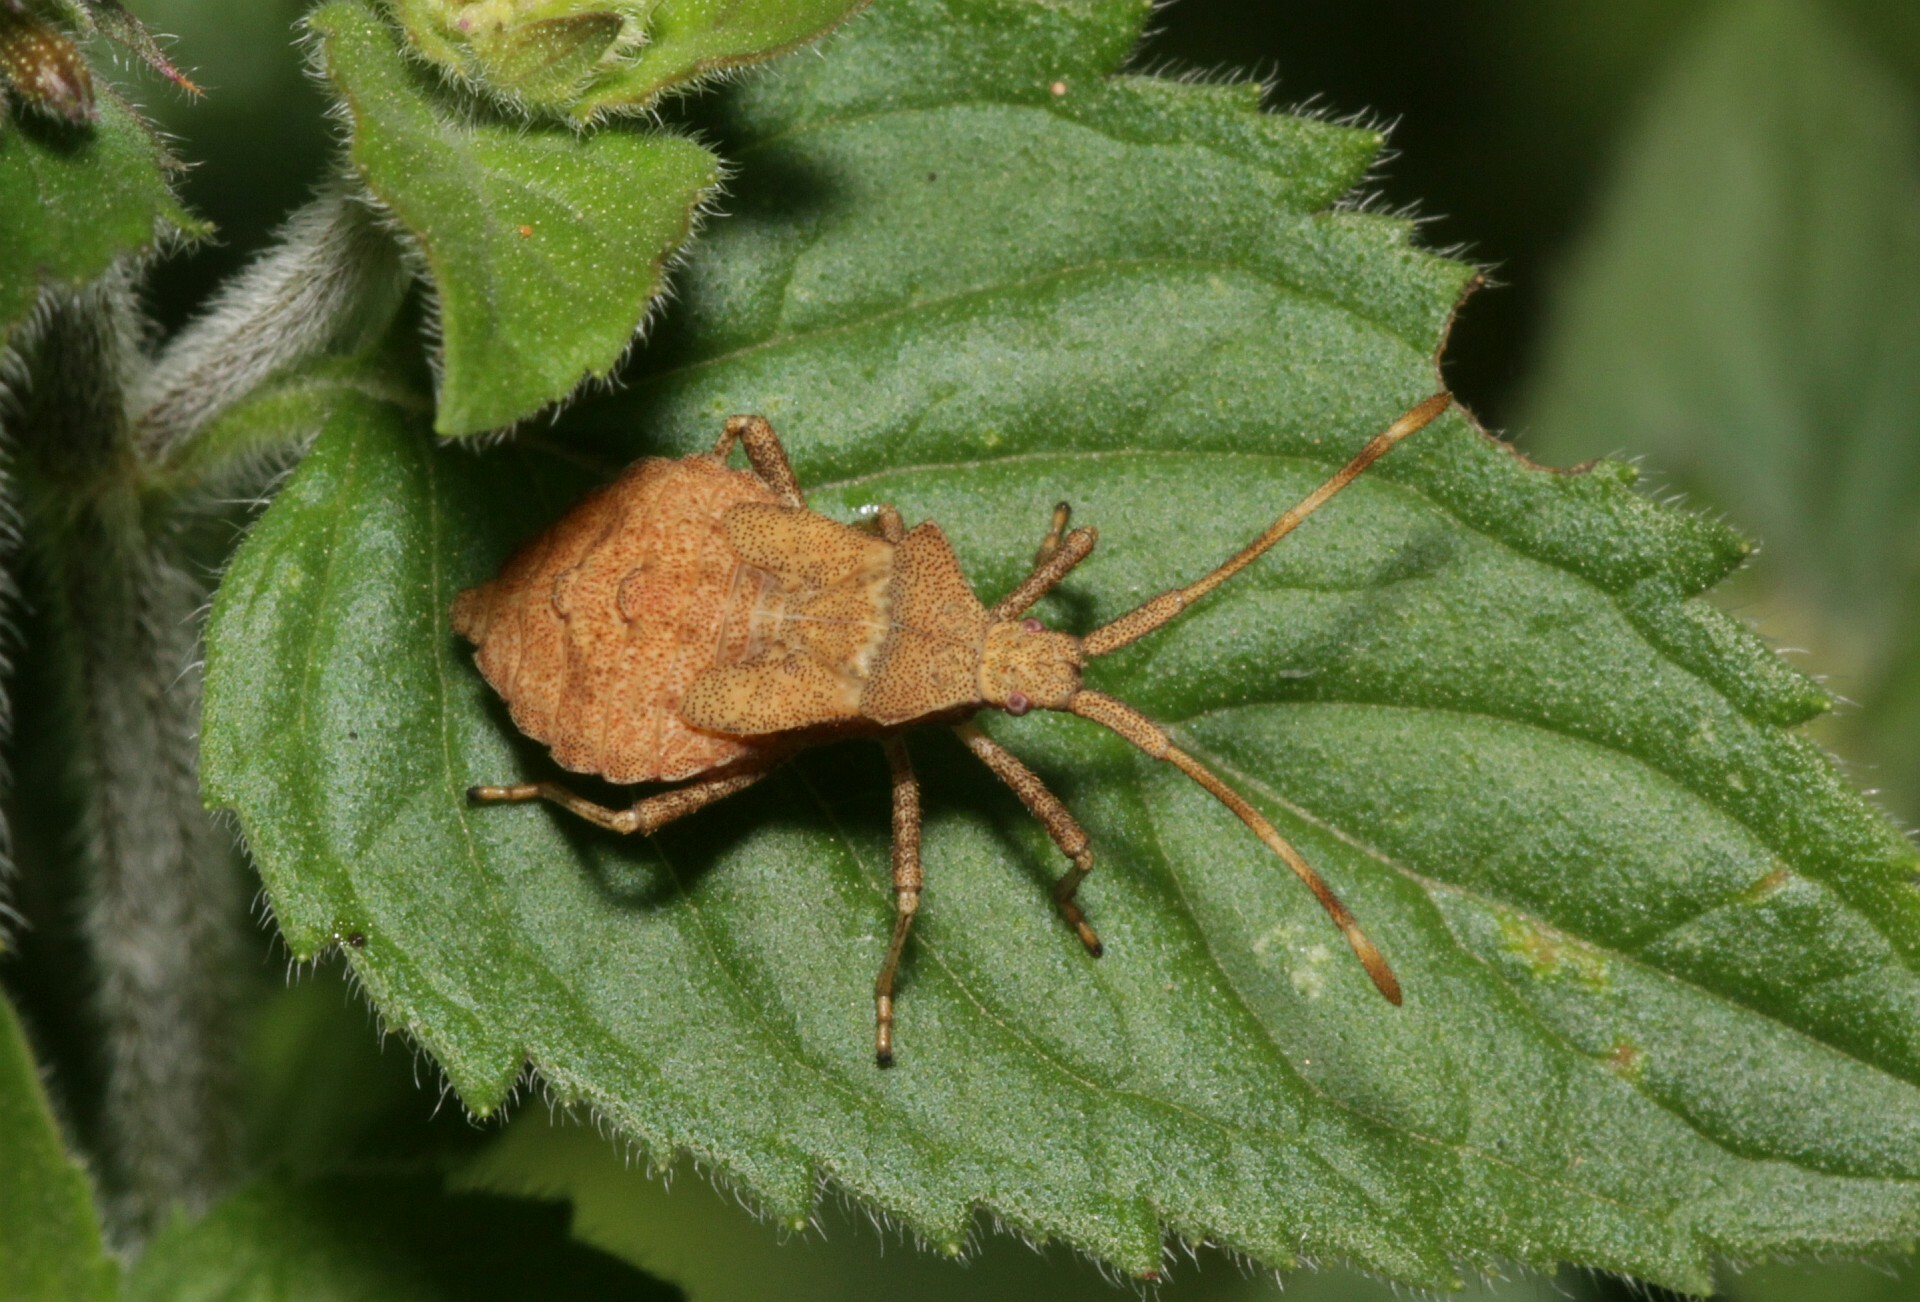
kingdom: Animalia
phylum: Arthropoda
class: Insecta
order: Hemiptera
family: Coreidae
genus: Coreus
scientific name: Coreus marginatus
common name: Dock bug
